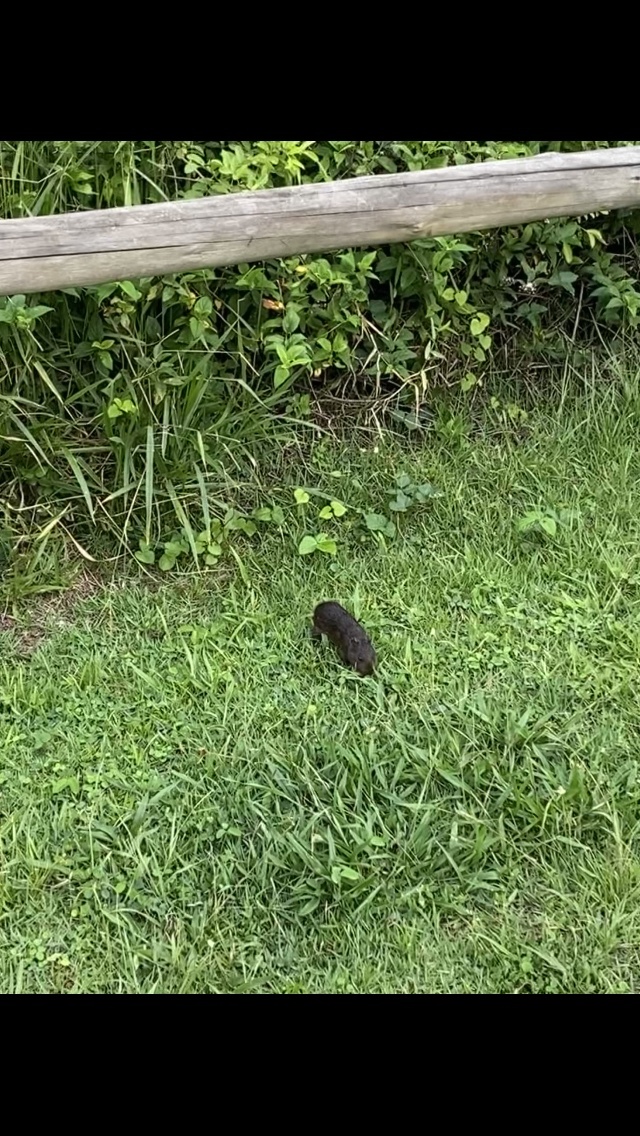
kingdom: Animalia
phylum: Chordata
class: Mammalia
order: Rodentia
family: Caviidae
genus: Cavia
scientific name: Cavia aperea
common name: Brazilian guinea pig
